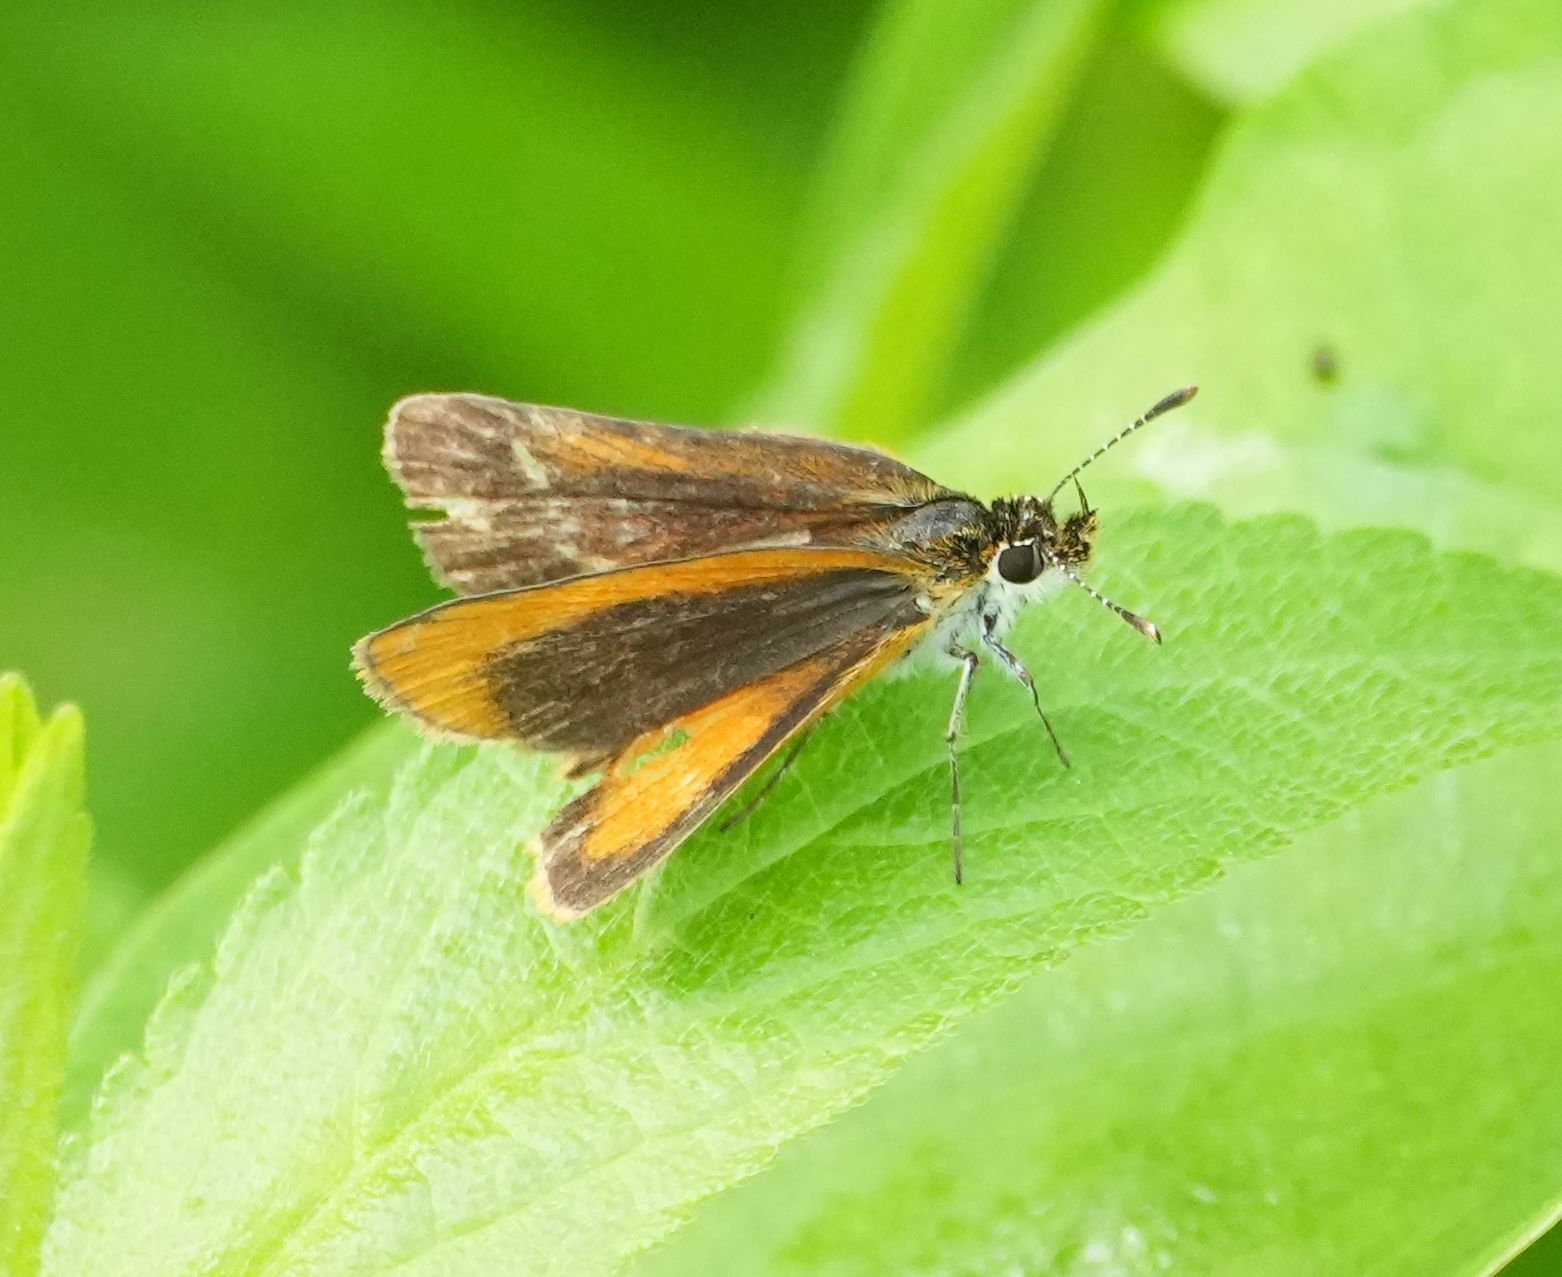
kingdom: Animalia
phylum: Arthropoda
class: Insecta
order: Lepidoptera
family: Hesperiidae
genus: Ancyloxypha
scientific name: Ancyloxypha numitor
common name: Least skipper
